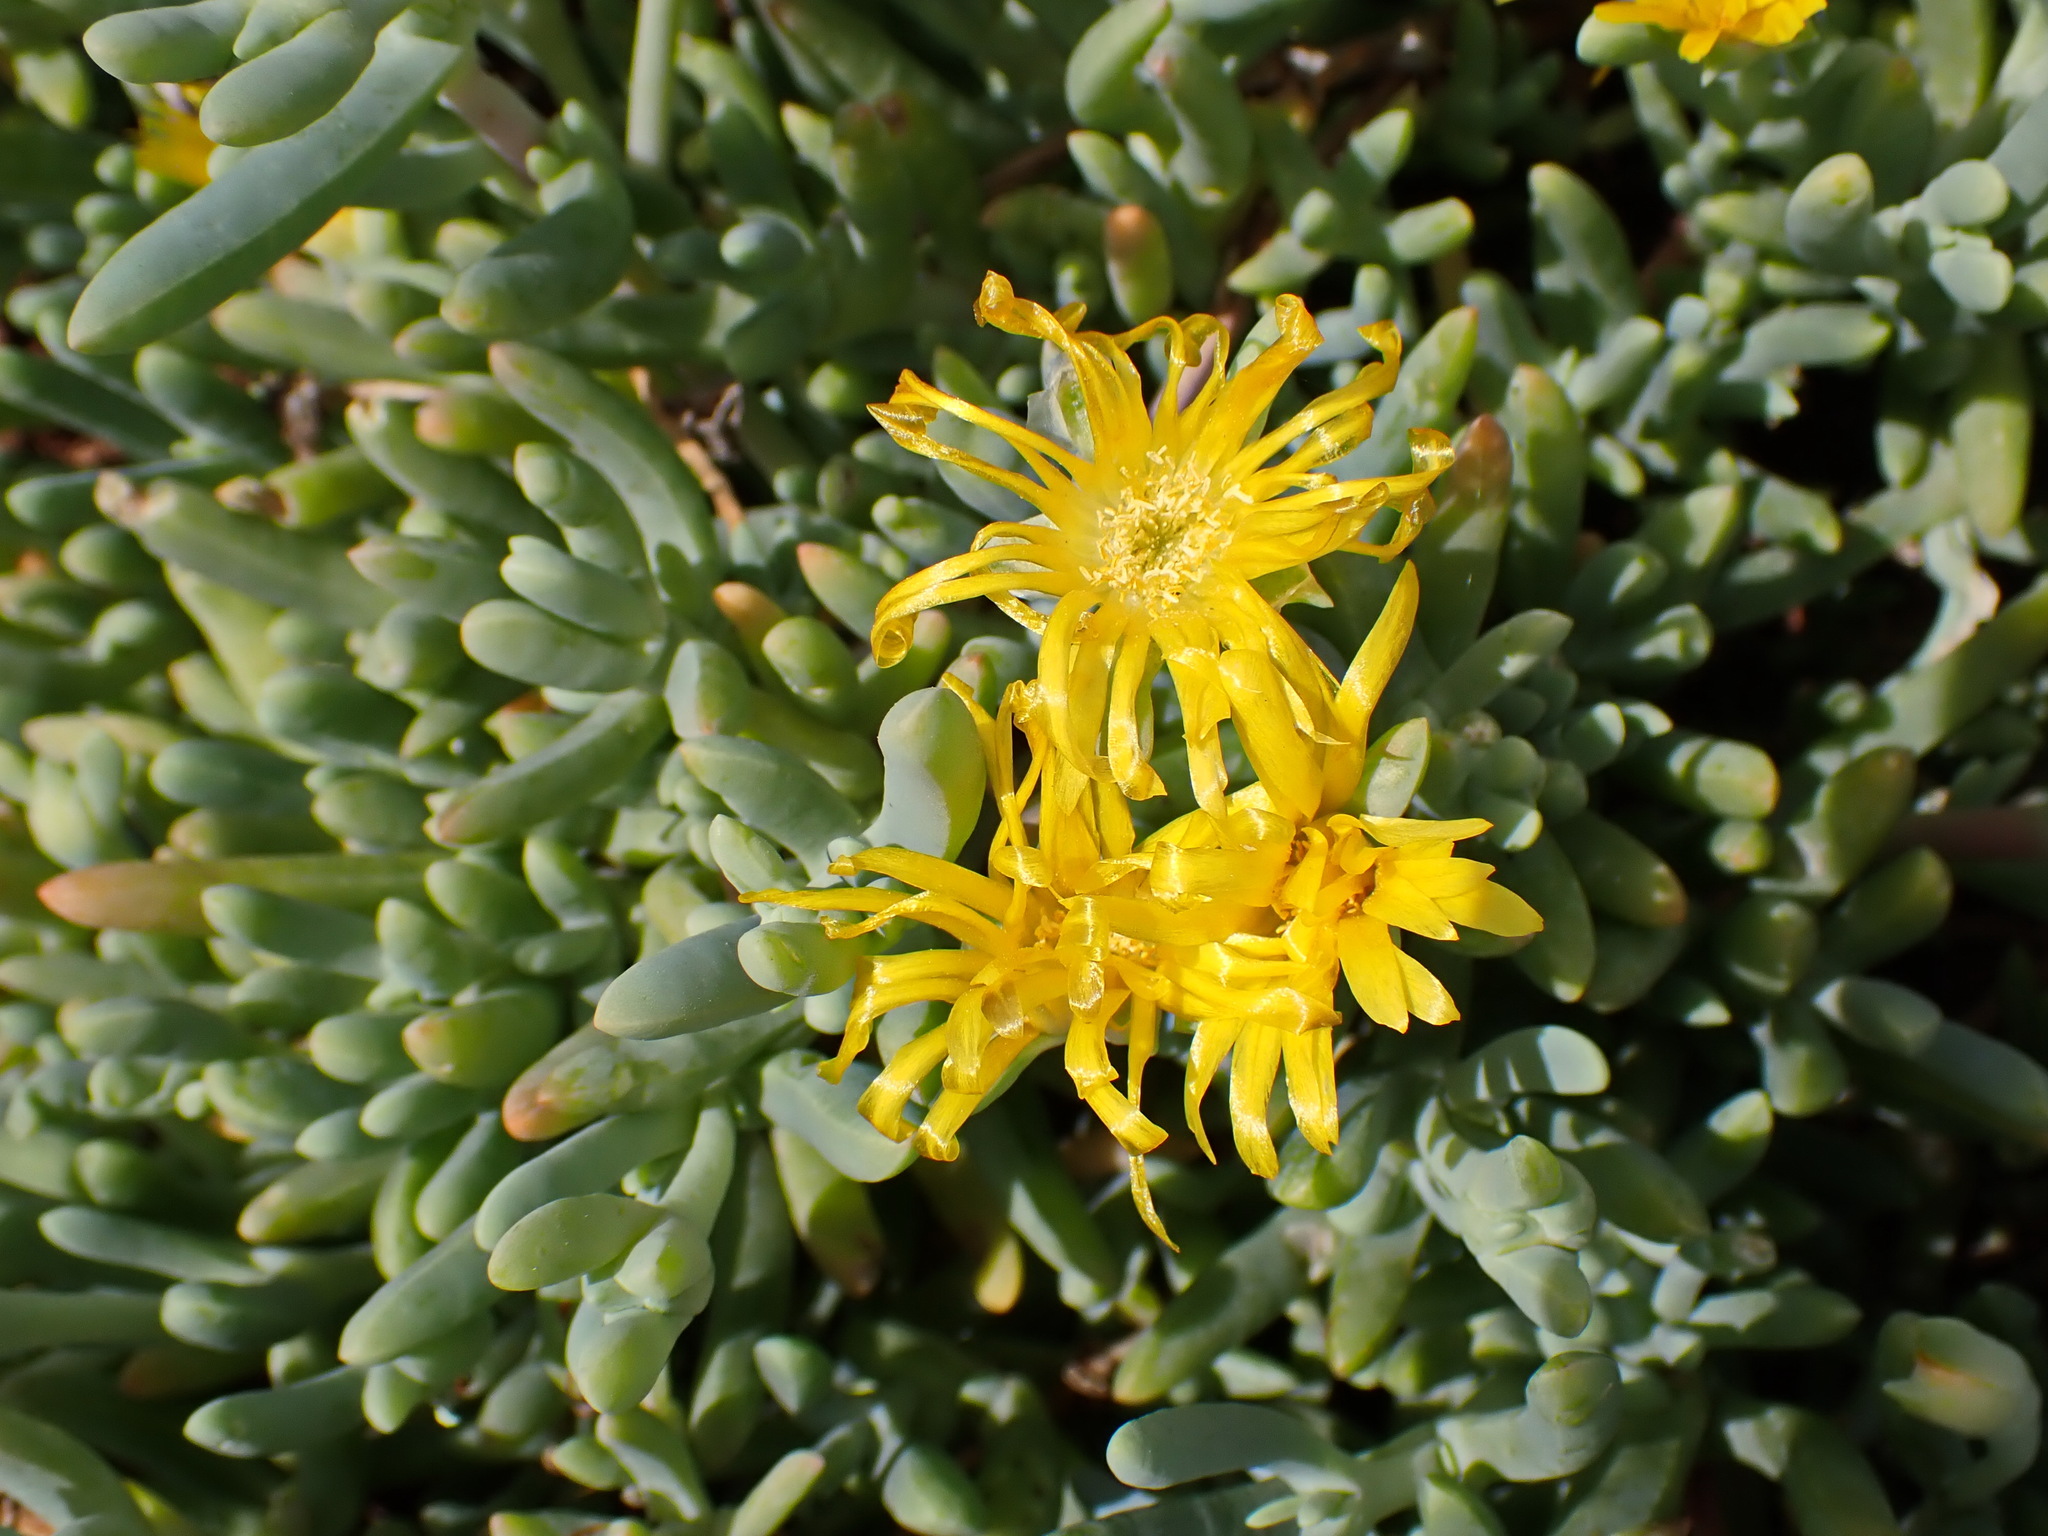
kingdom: Plantae
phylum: Tracheophyta
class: Magnoliopsida
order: Caryophyllales
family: Aizoaceae
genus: Malephora
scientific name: Malephora lutea
